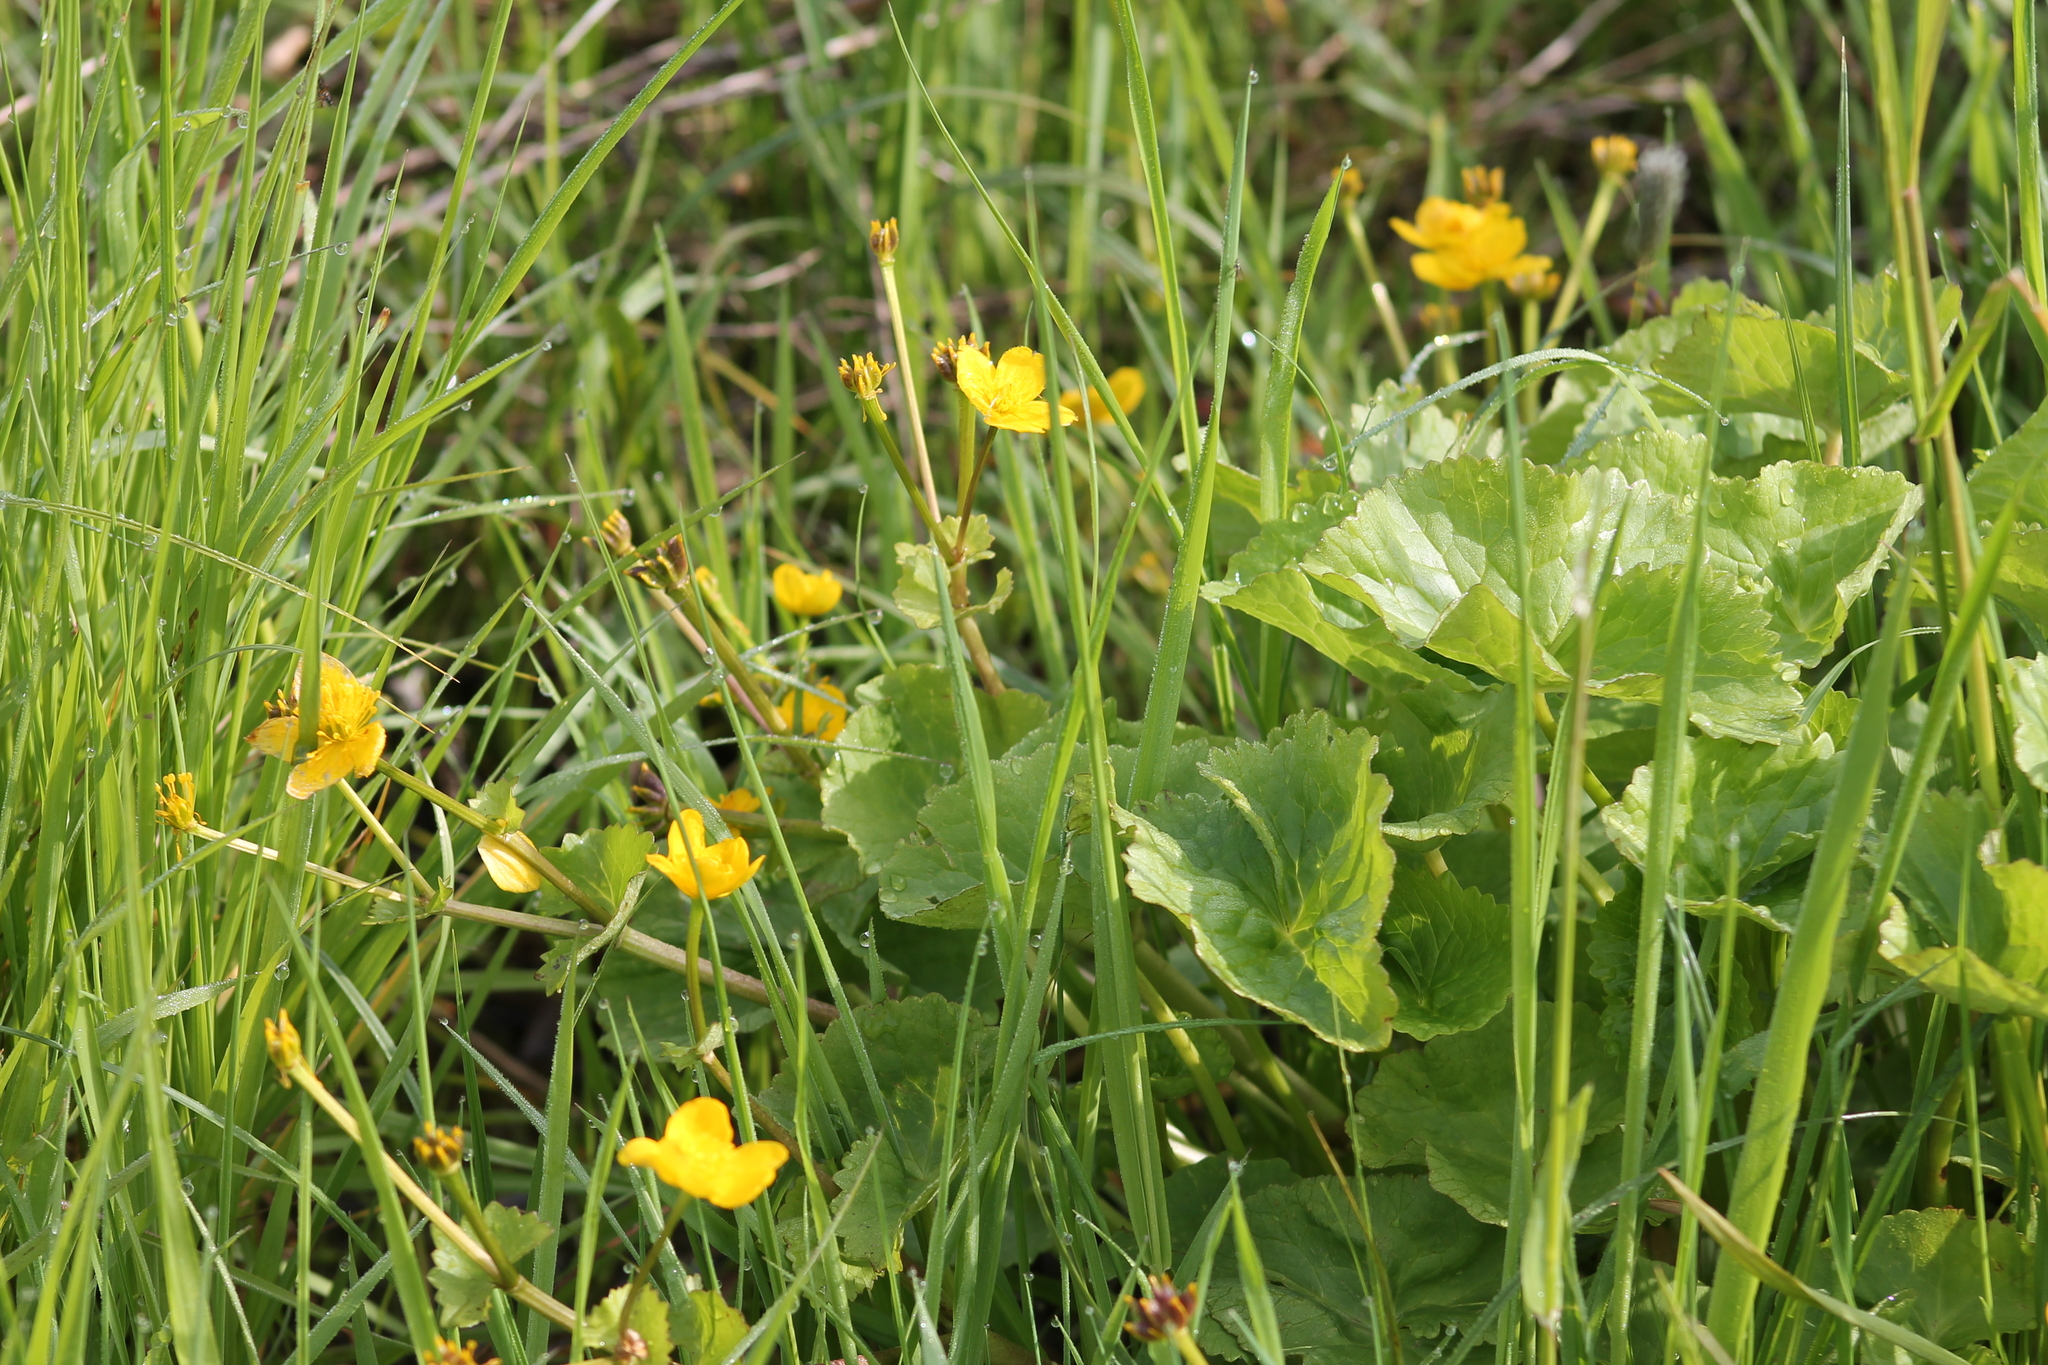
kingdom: Plantae
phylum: Tracheophyta
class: Magnoliopsida
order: Ranunculales
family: Ranunculaceae
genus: Caltha
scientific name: Caltha palustris
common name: Marsh marigold
